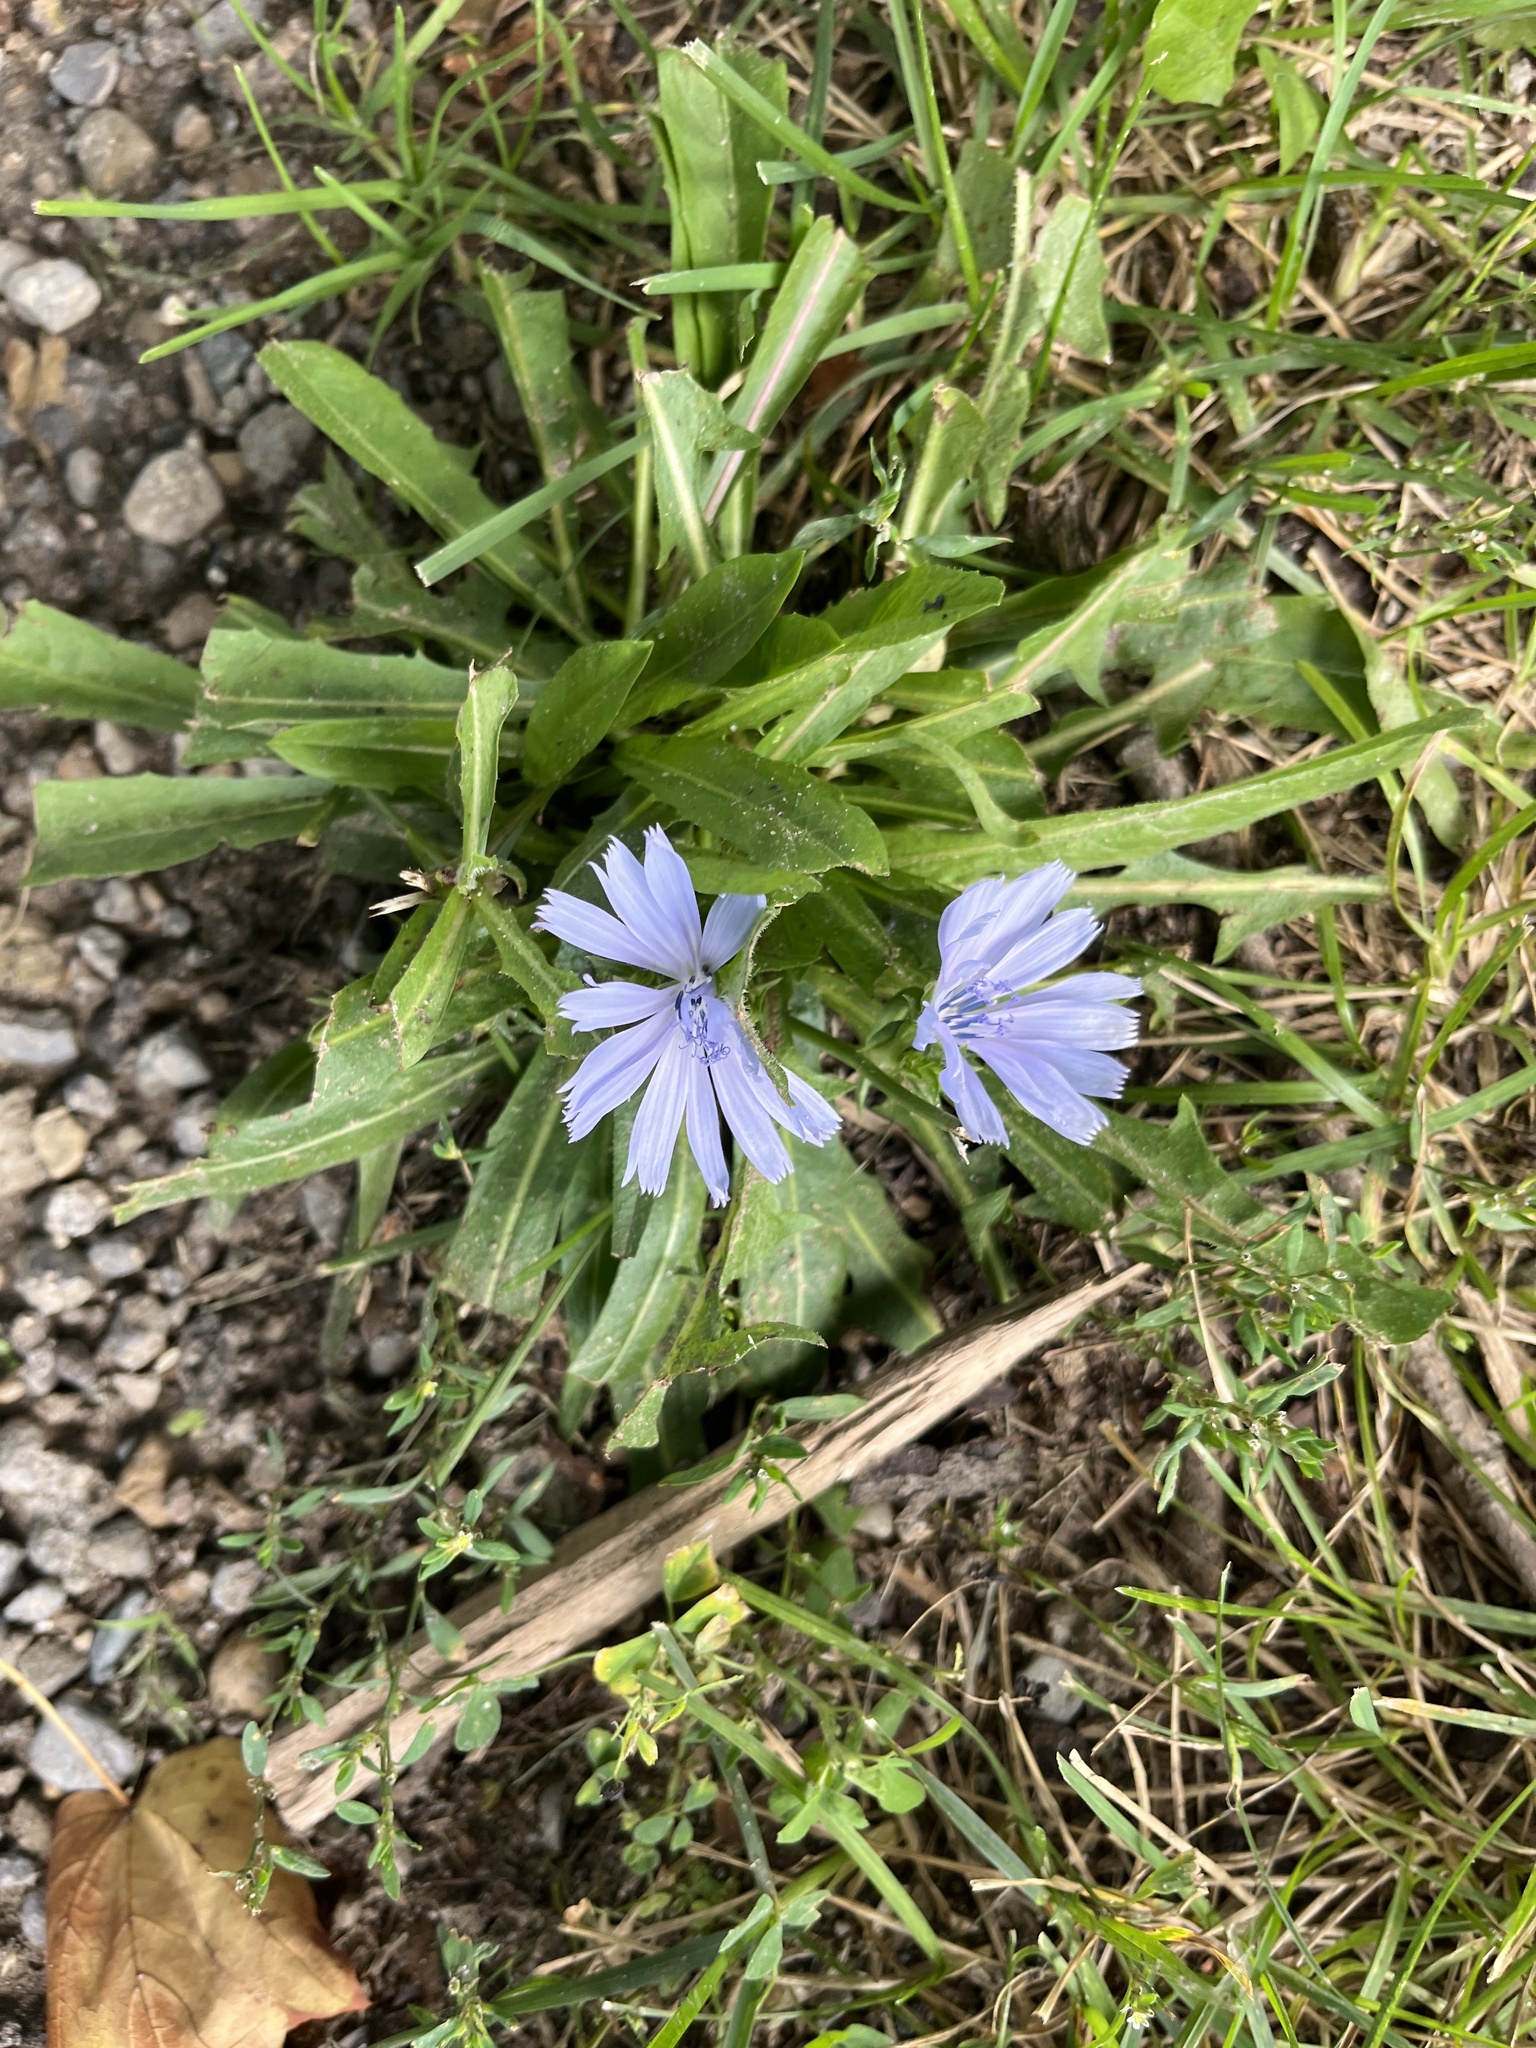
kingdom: Plantae
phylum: Tracheophyta
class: Magnoliopsida
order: Asterales
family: Asteraceae
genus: Cichorium
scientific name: Cichorium intybus
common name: Chicory
